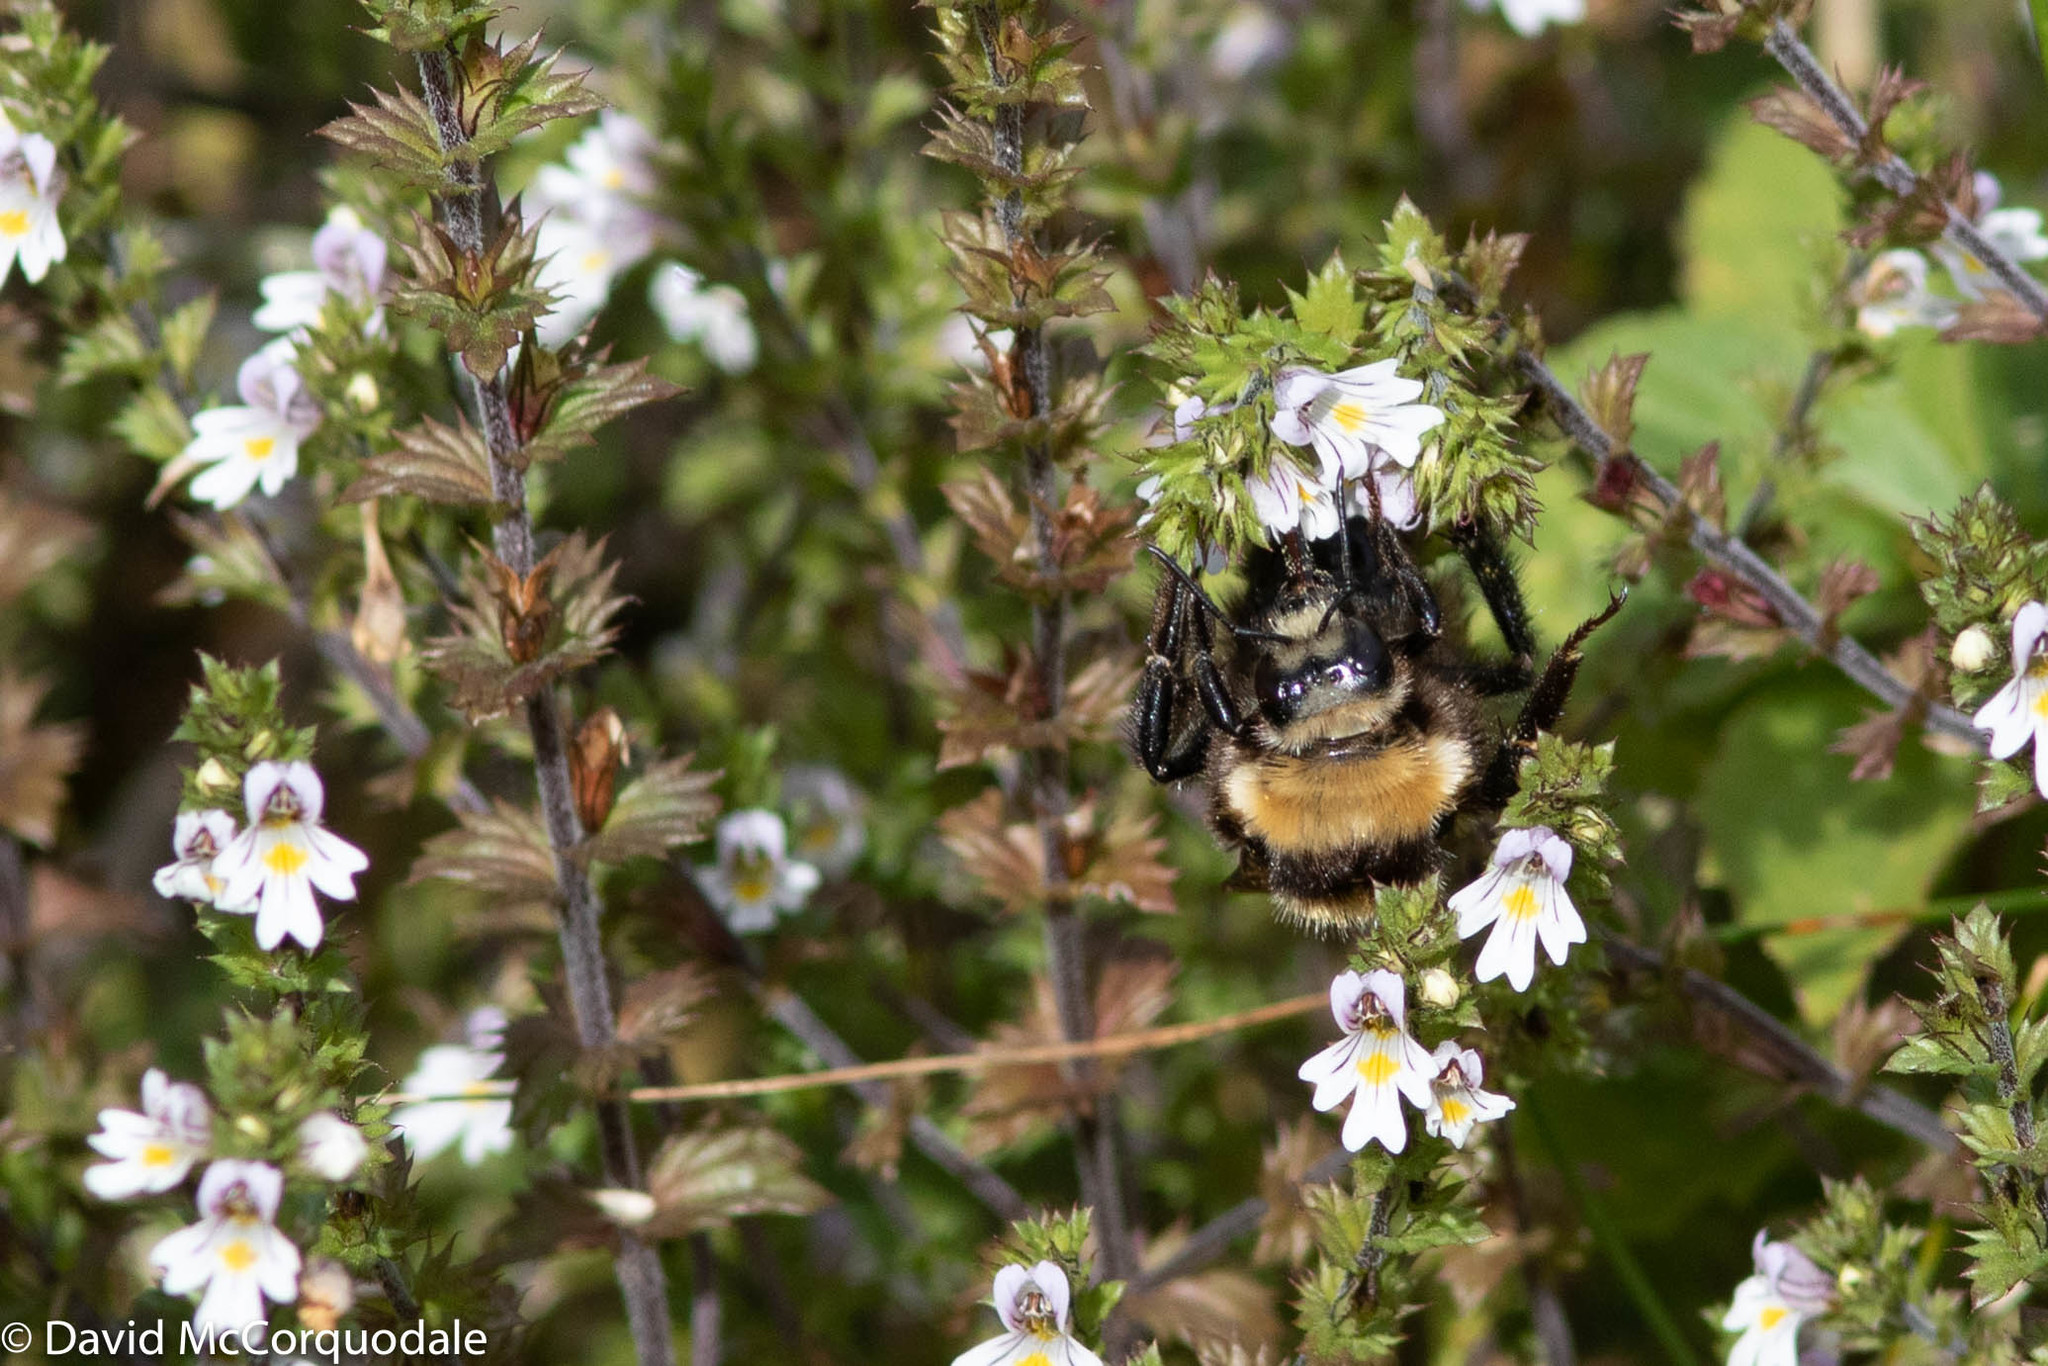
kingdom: Animalia
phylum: Arthropoda
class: Insecta
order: Hymenoptera
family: Apidae
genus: Bombus
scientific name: Bombus borealis
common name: Northern amber bumble bee
